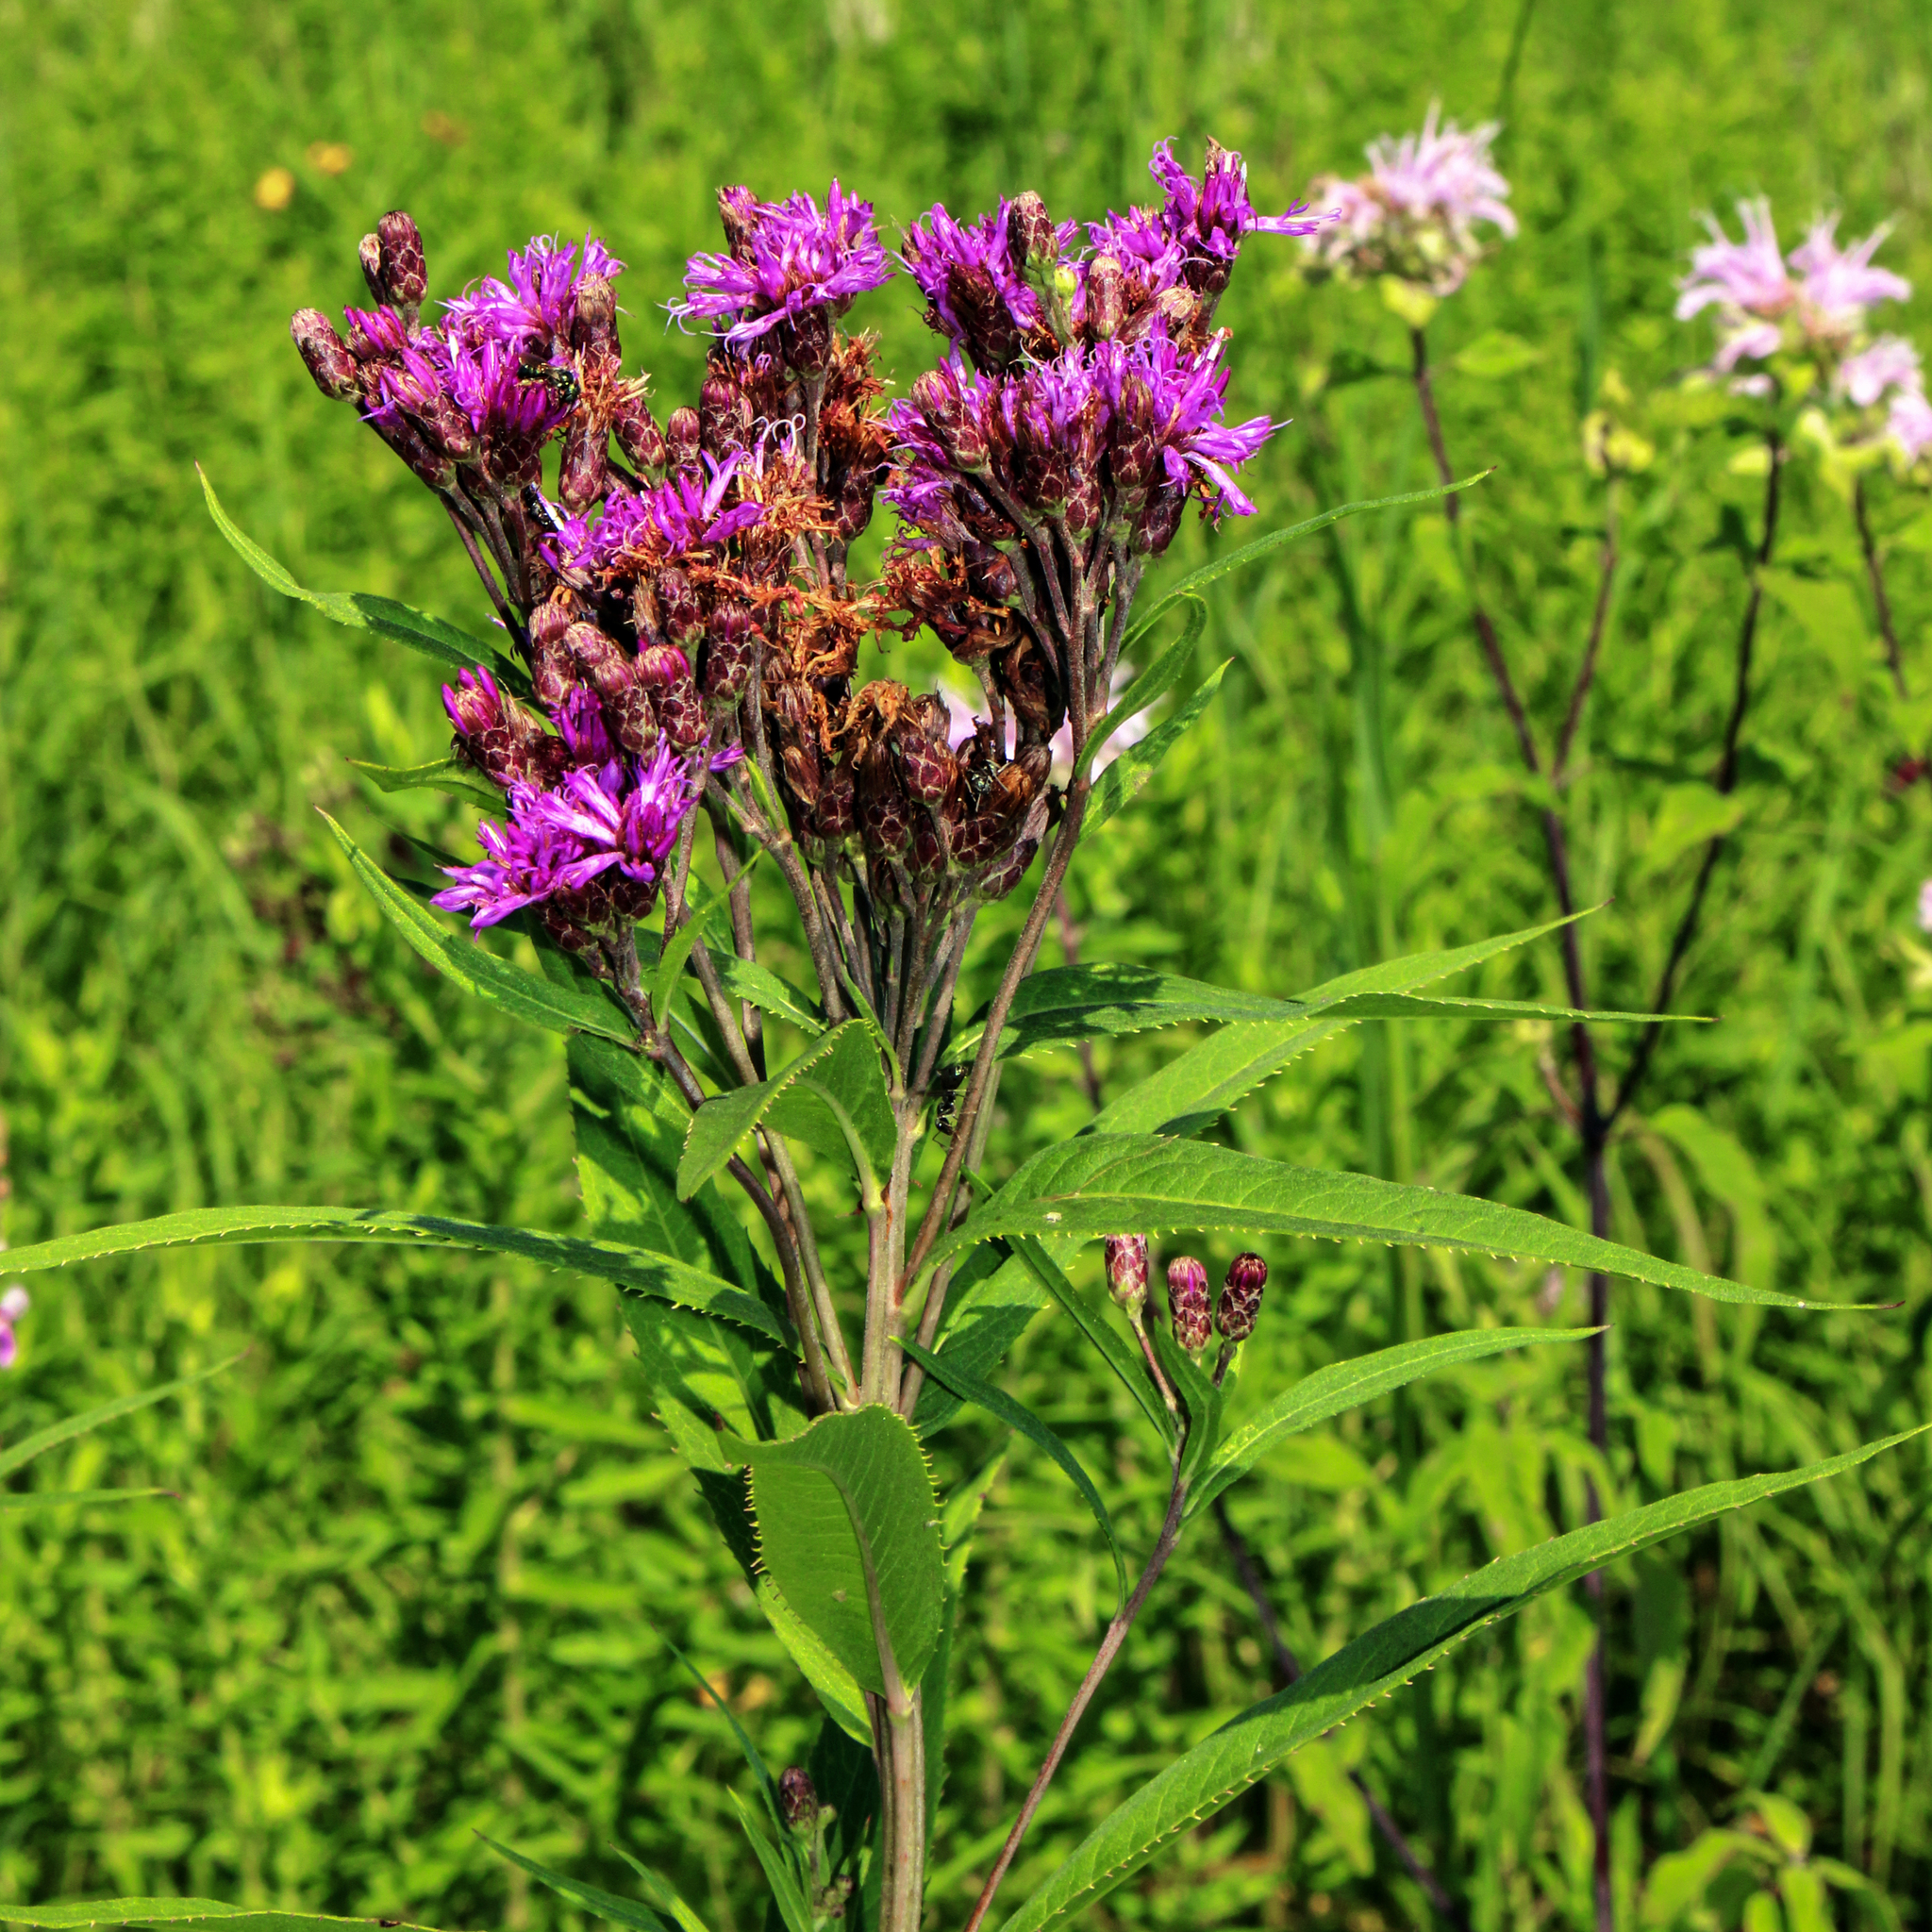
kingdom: Plantae
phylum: Tracheophyta
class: Magnoliopsida
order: Asterales
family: Asteraceae
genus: Vernonia
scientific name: Vernonia fasciculata
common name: Fascicled ironweed
